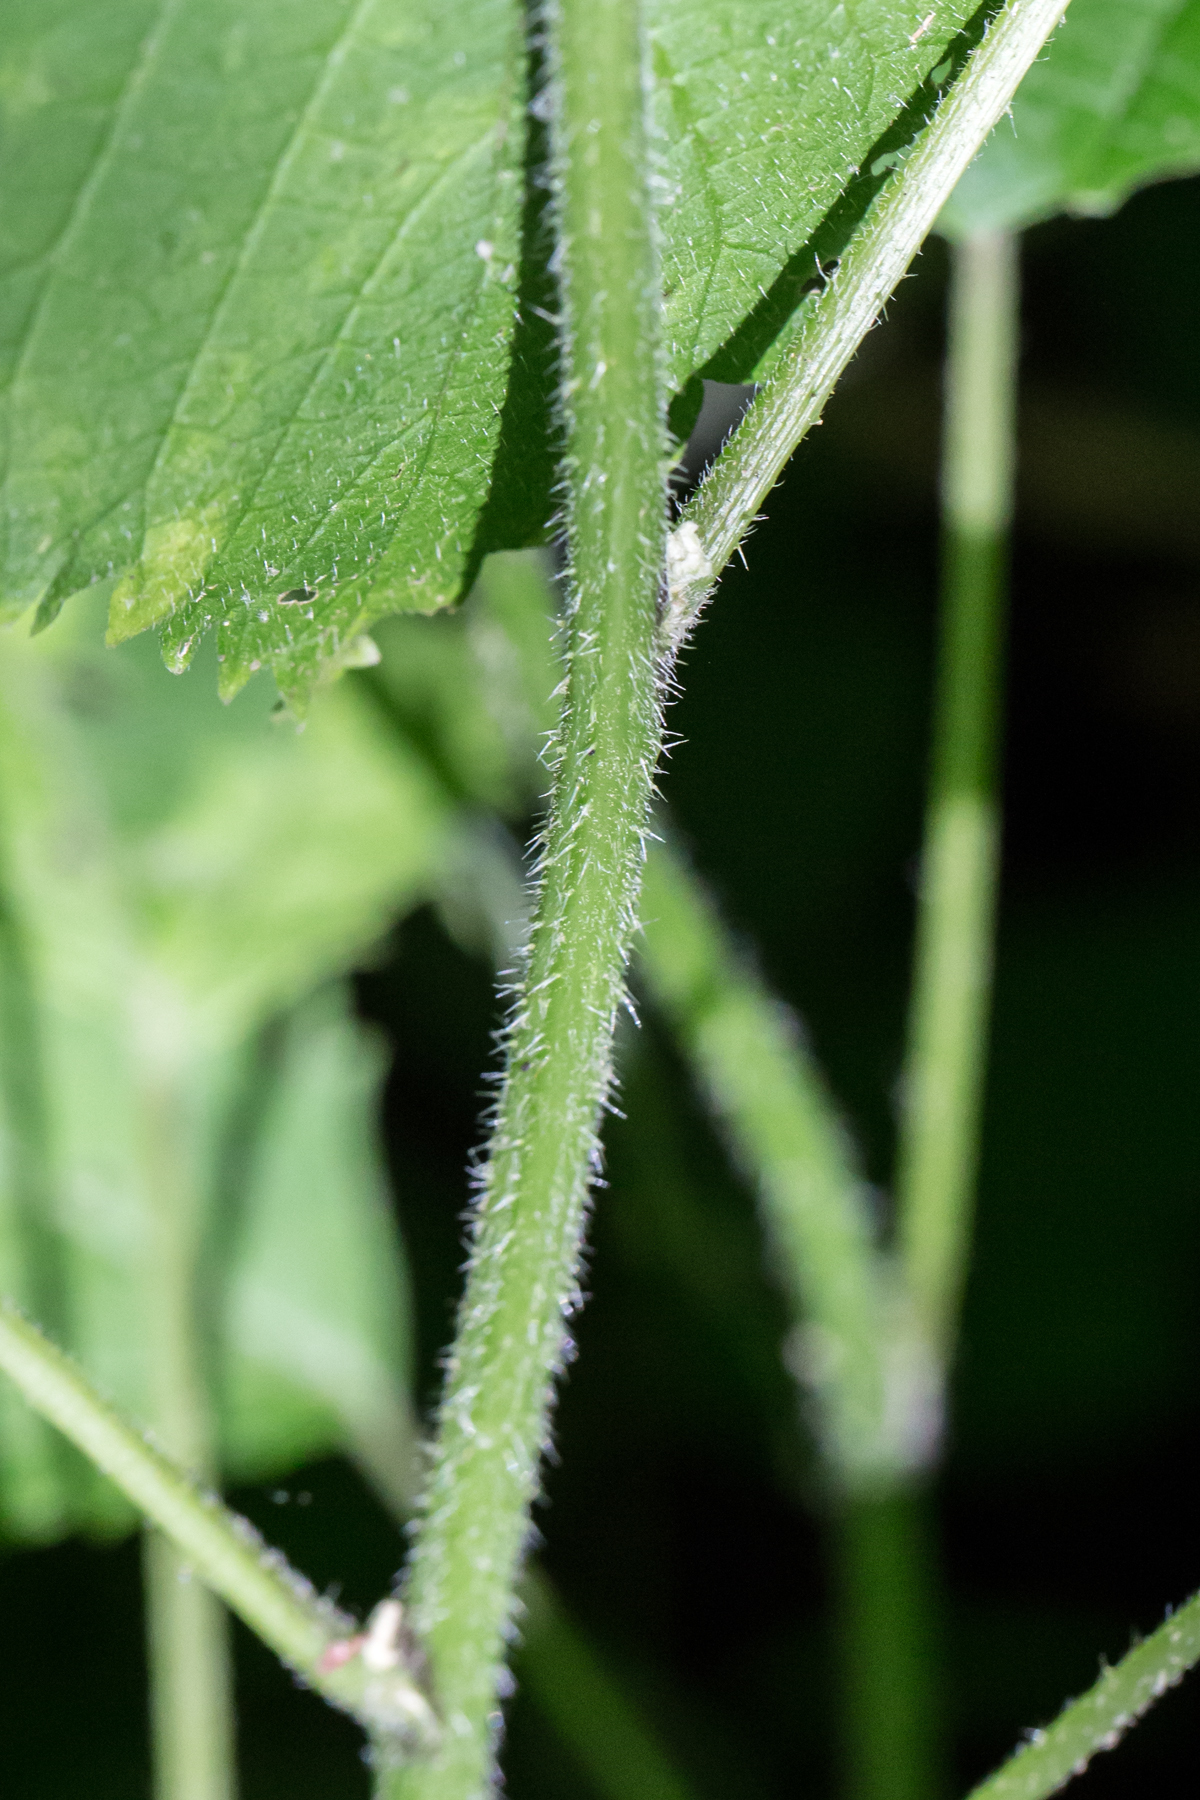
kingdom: Plantae
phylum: Tracheophyta
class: Magnoliopsida
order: Rosales
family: Urticaceae
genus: Laportea
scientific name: Laportea canadensis
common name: Canada nettle
